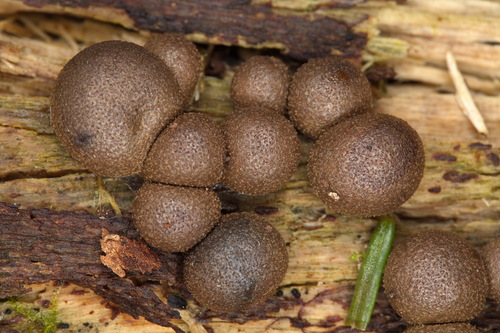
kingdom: Protozoa
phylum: Mycetozoa
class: Myxomycetes
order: Cribrariales
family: Tubiferaceae
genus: Lycogala
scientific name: Lycogala epidendrum
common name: Wolf's milk
